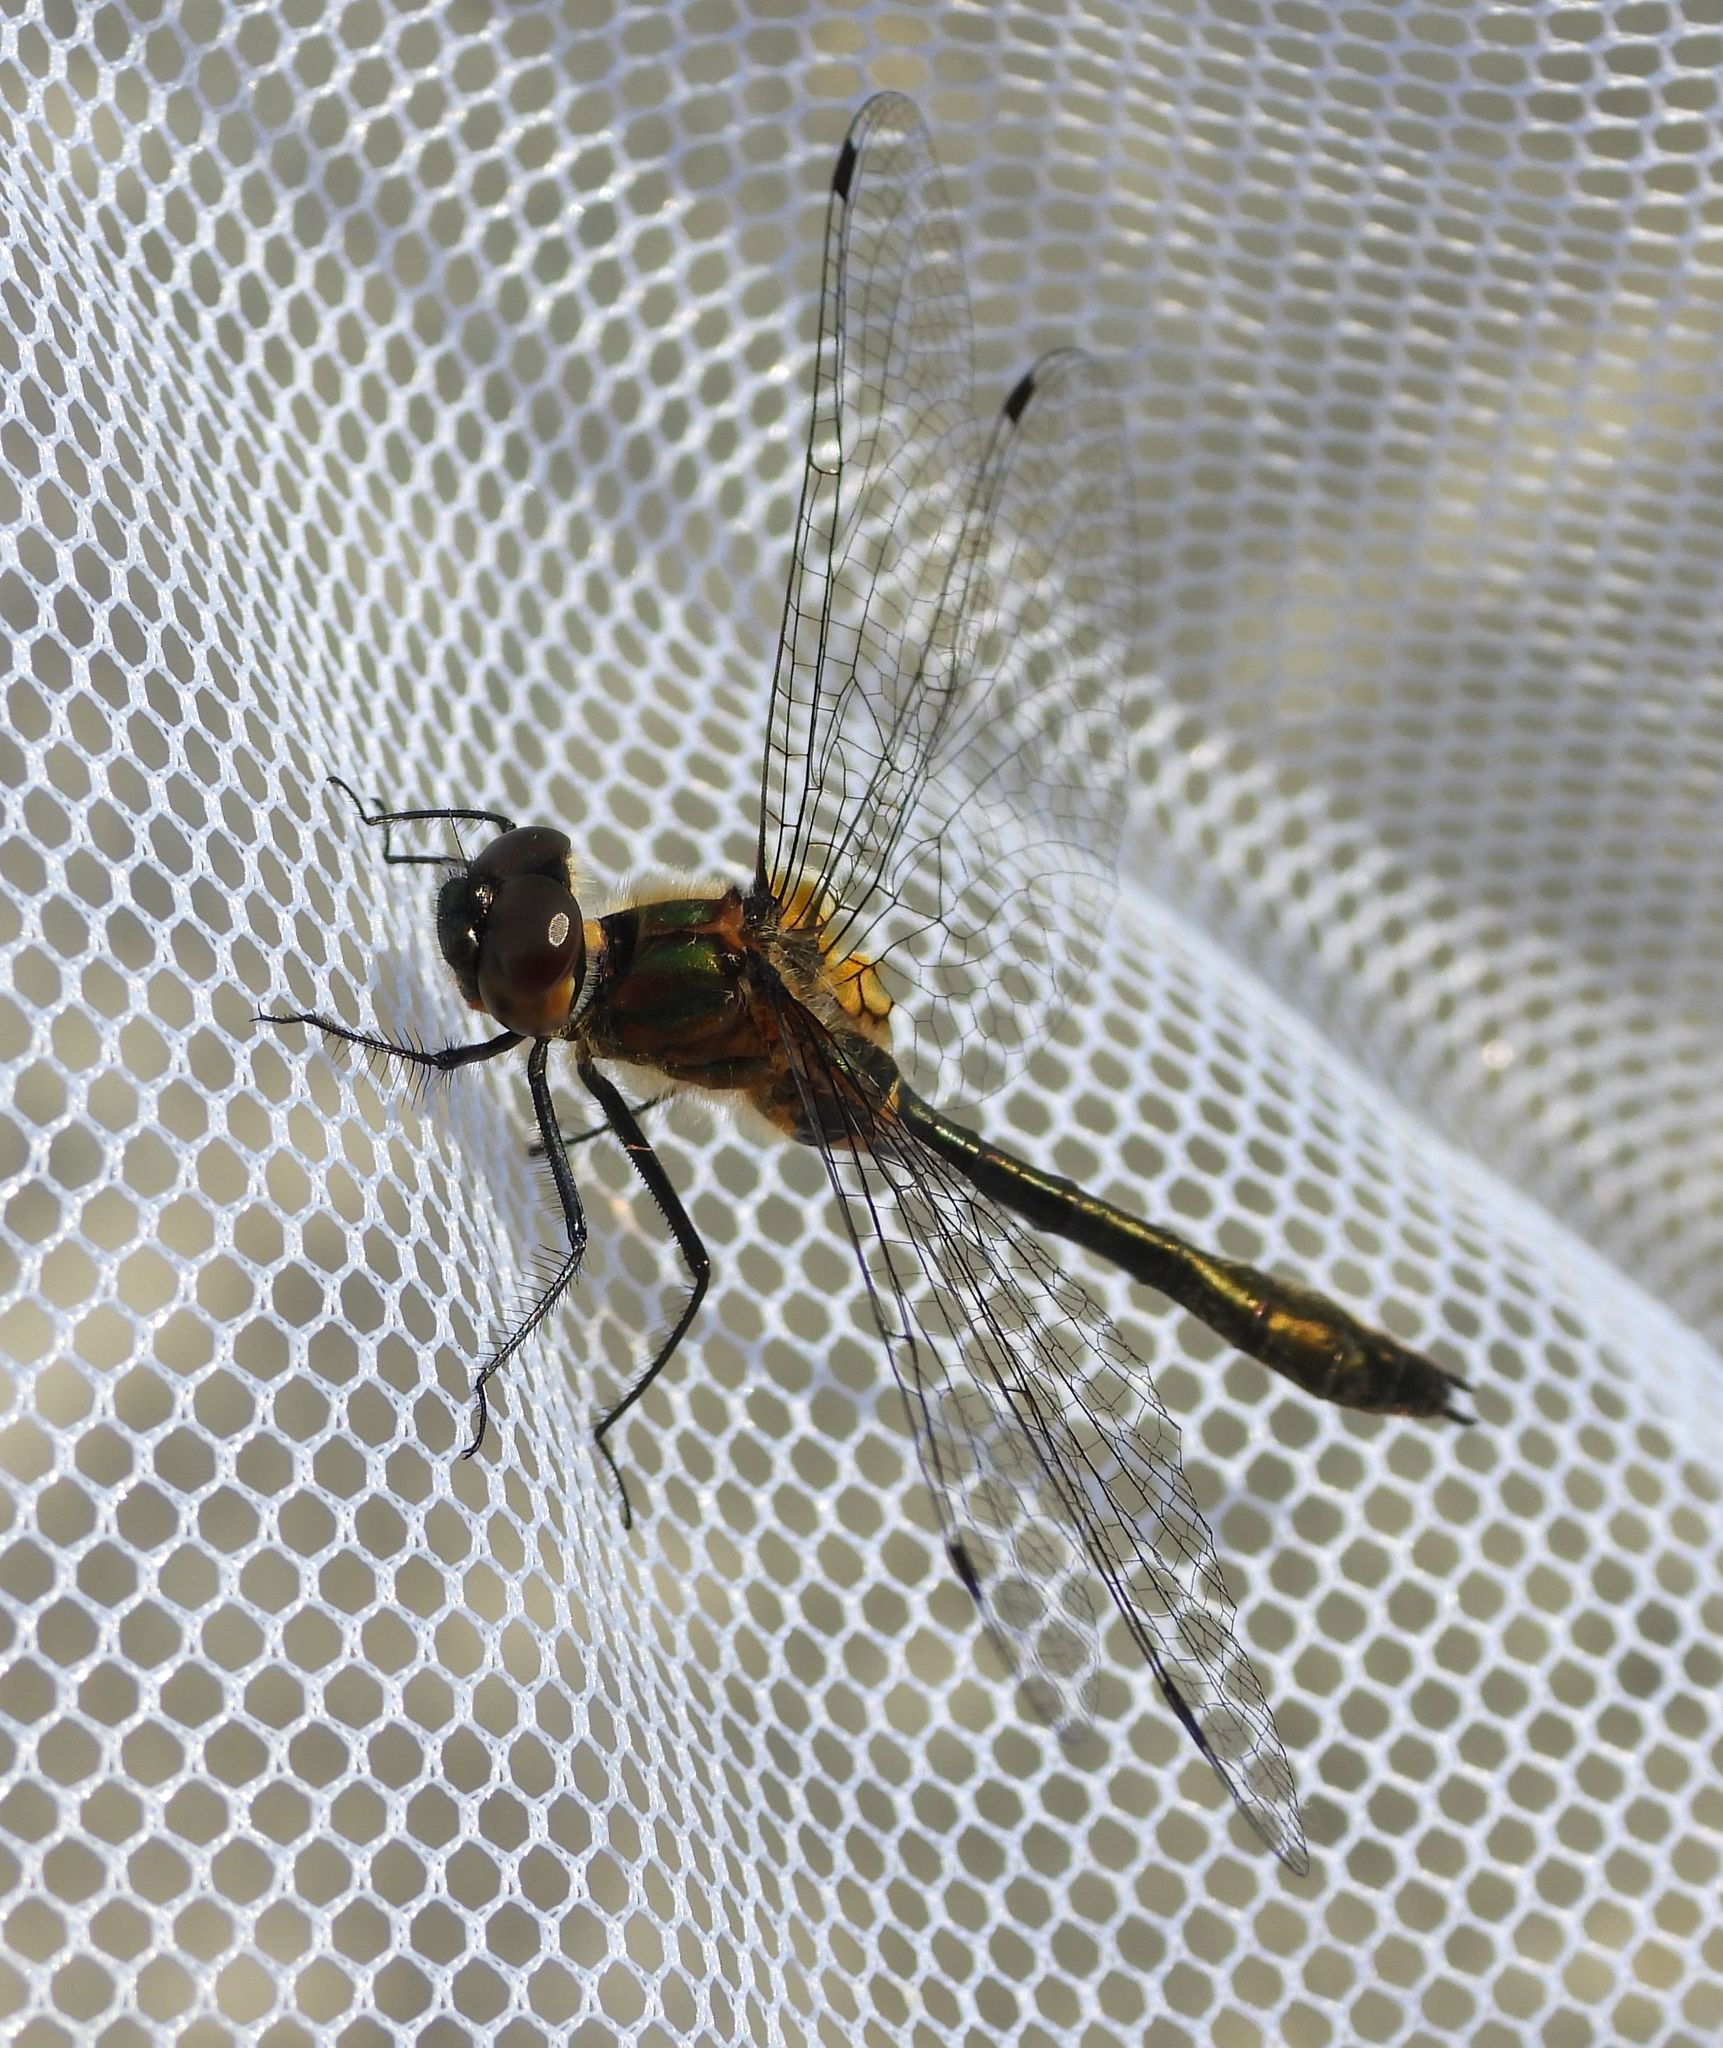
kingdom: Animalia
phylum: Arthropoda
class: Insecta
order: Odonata
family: Corduliidae
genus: Dorocordulia
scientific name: Dorocordulia libera
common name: Racket-tailed emerald
